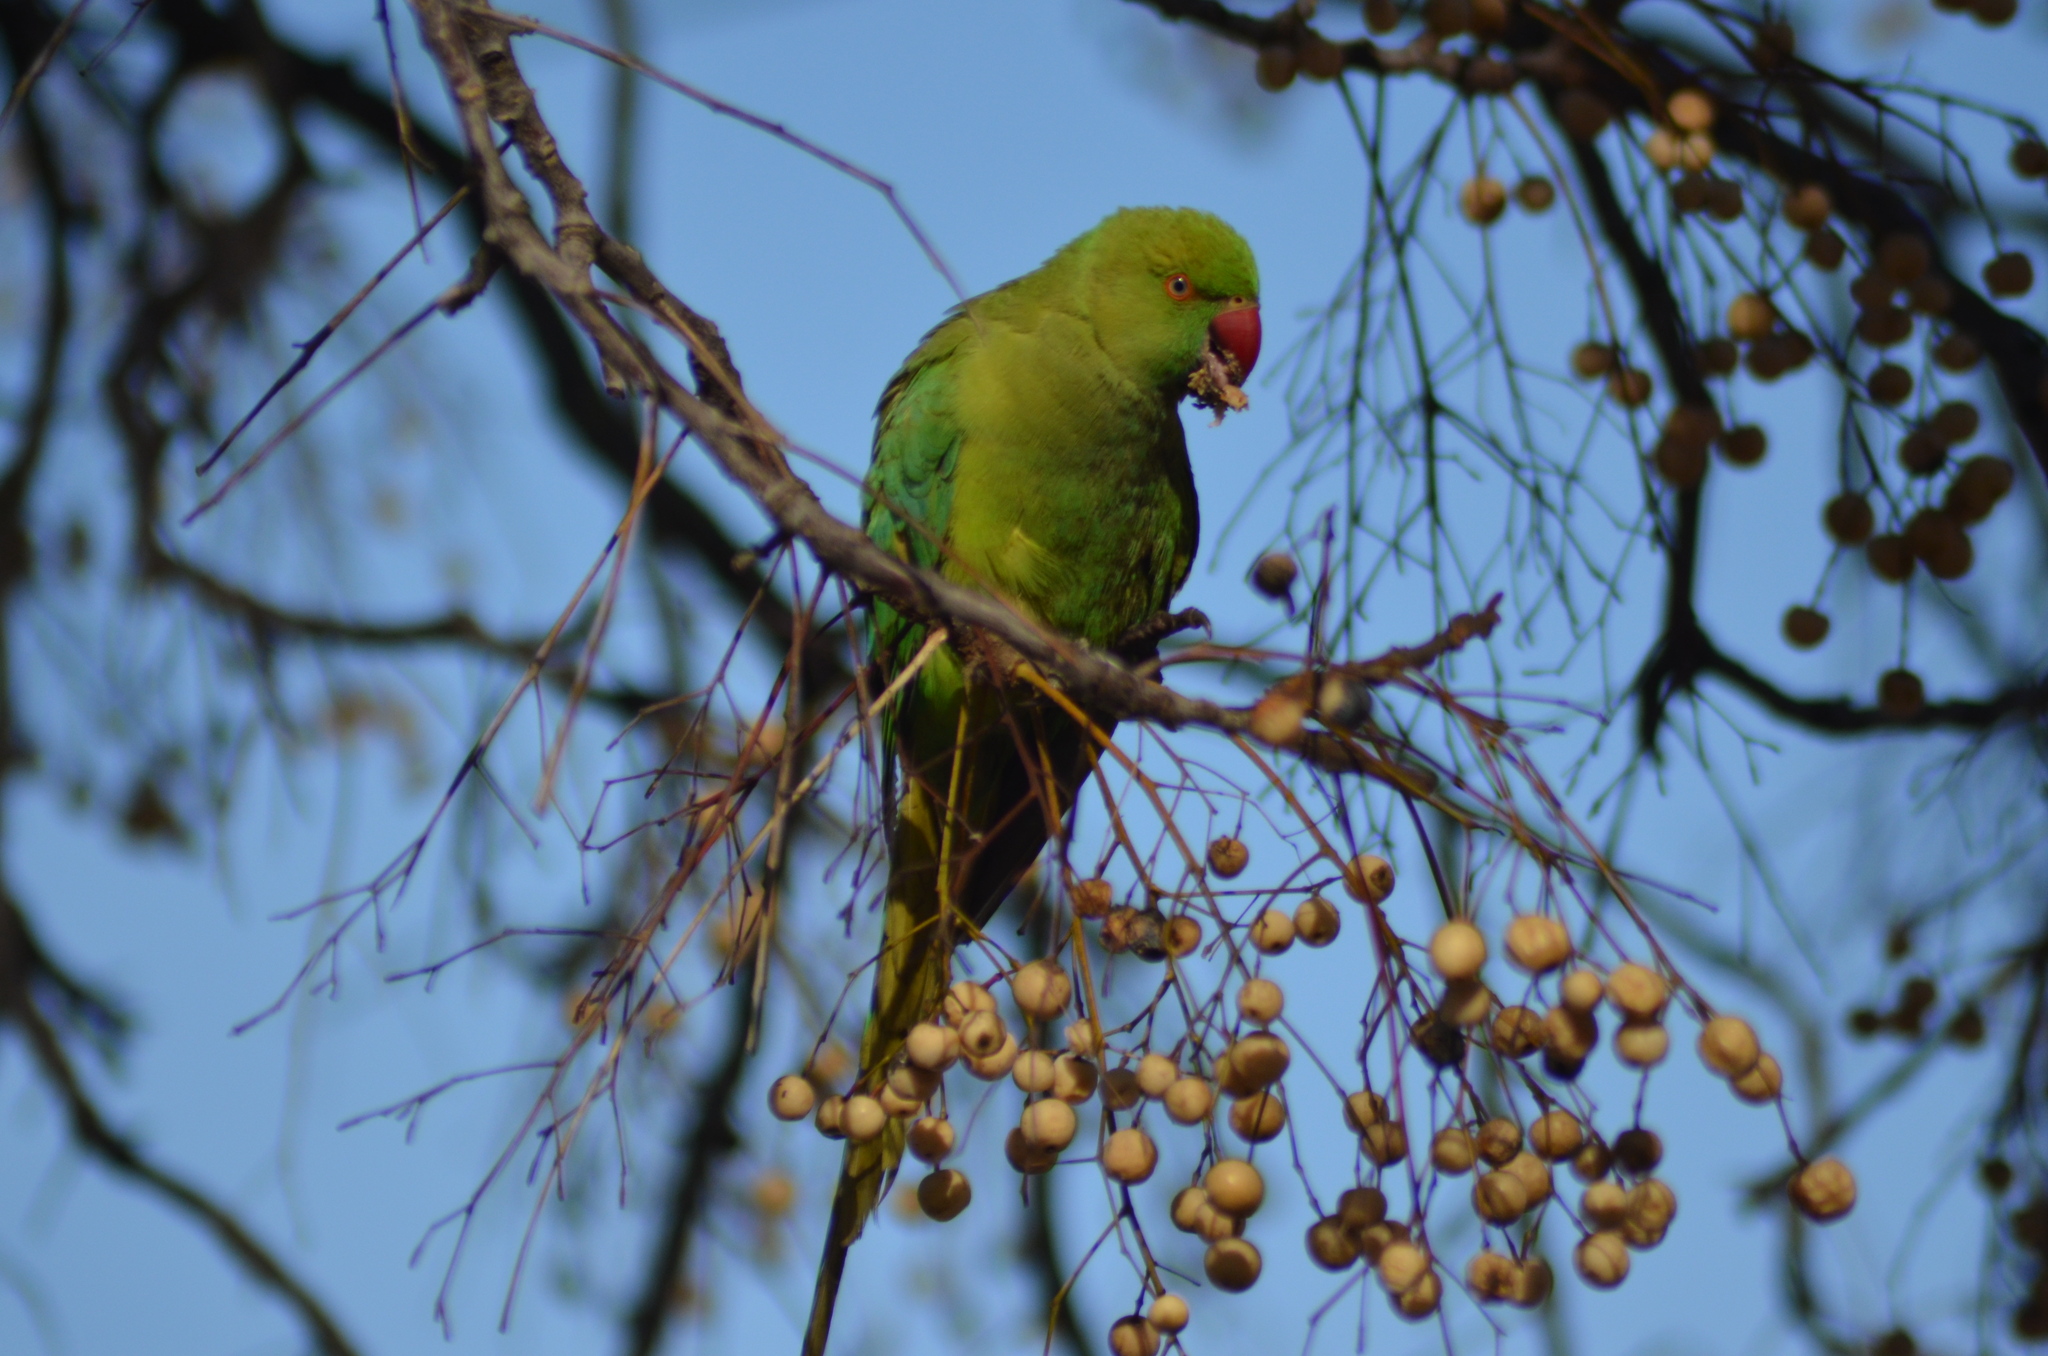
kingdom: Animalia
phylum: Chordata
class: Aves
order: Psittaciformes
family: Psittacidae
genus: Psittacula
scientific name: Psittacula krameri
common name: Rose-ringed parakeet
